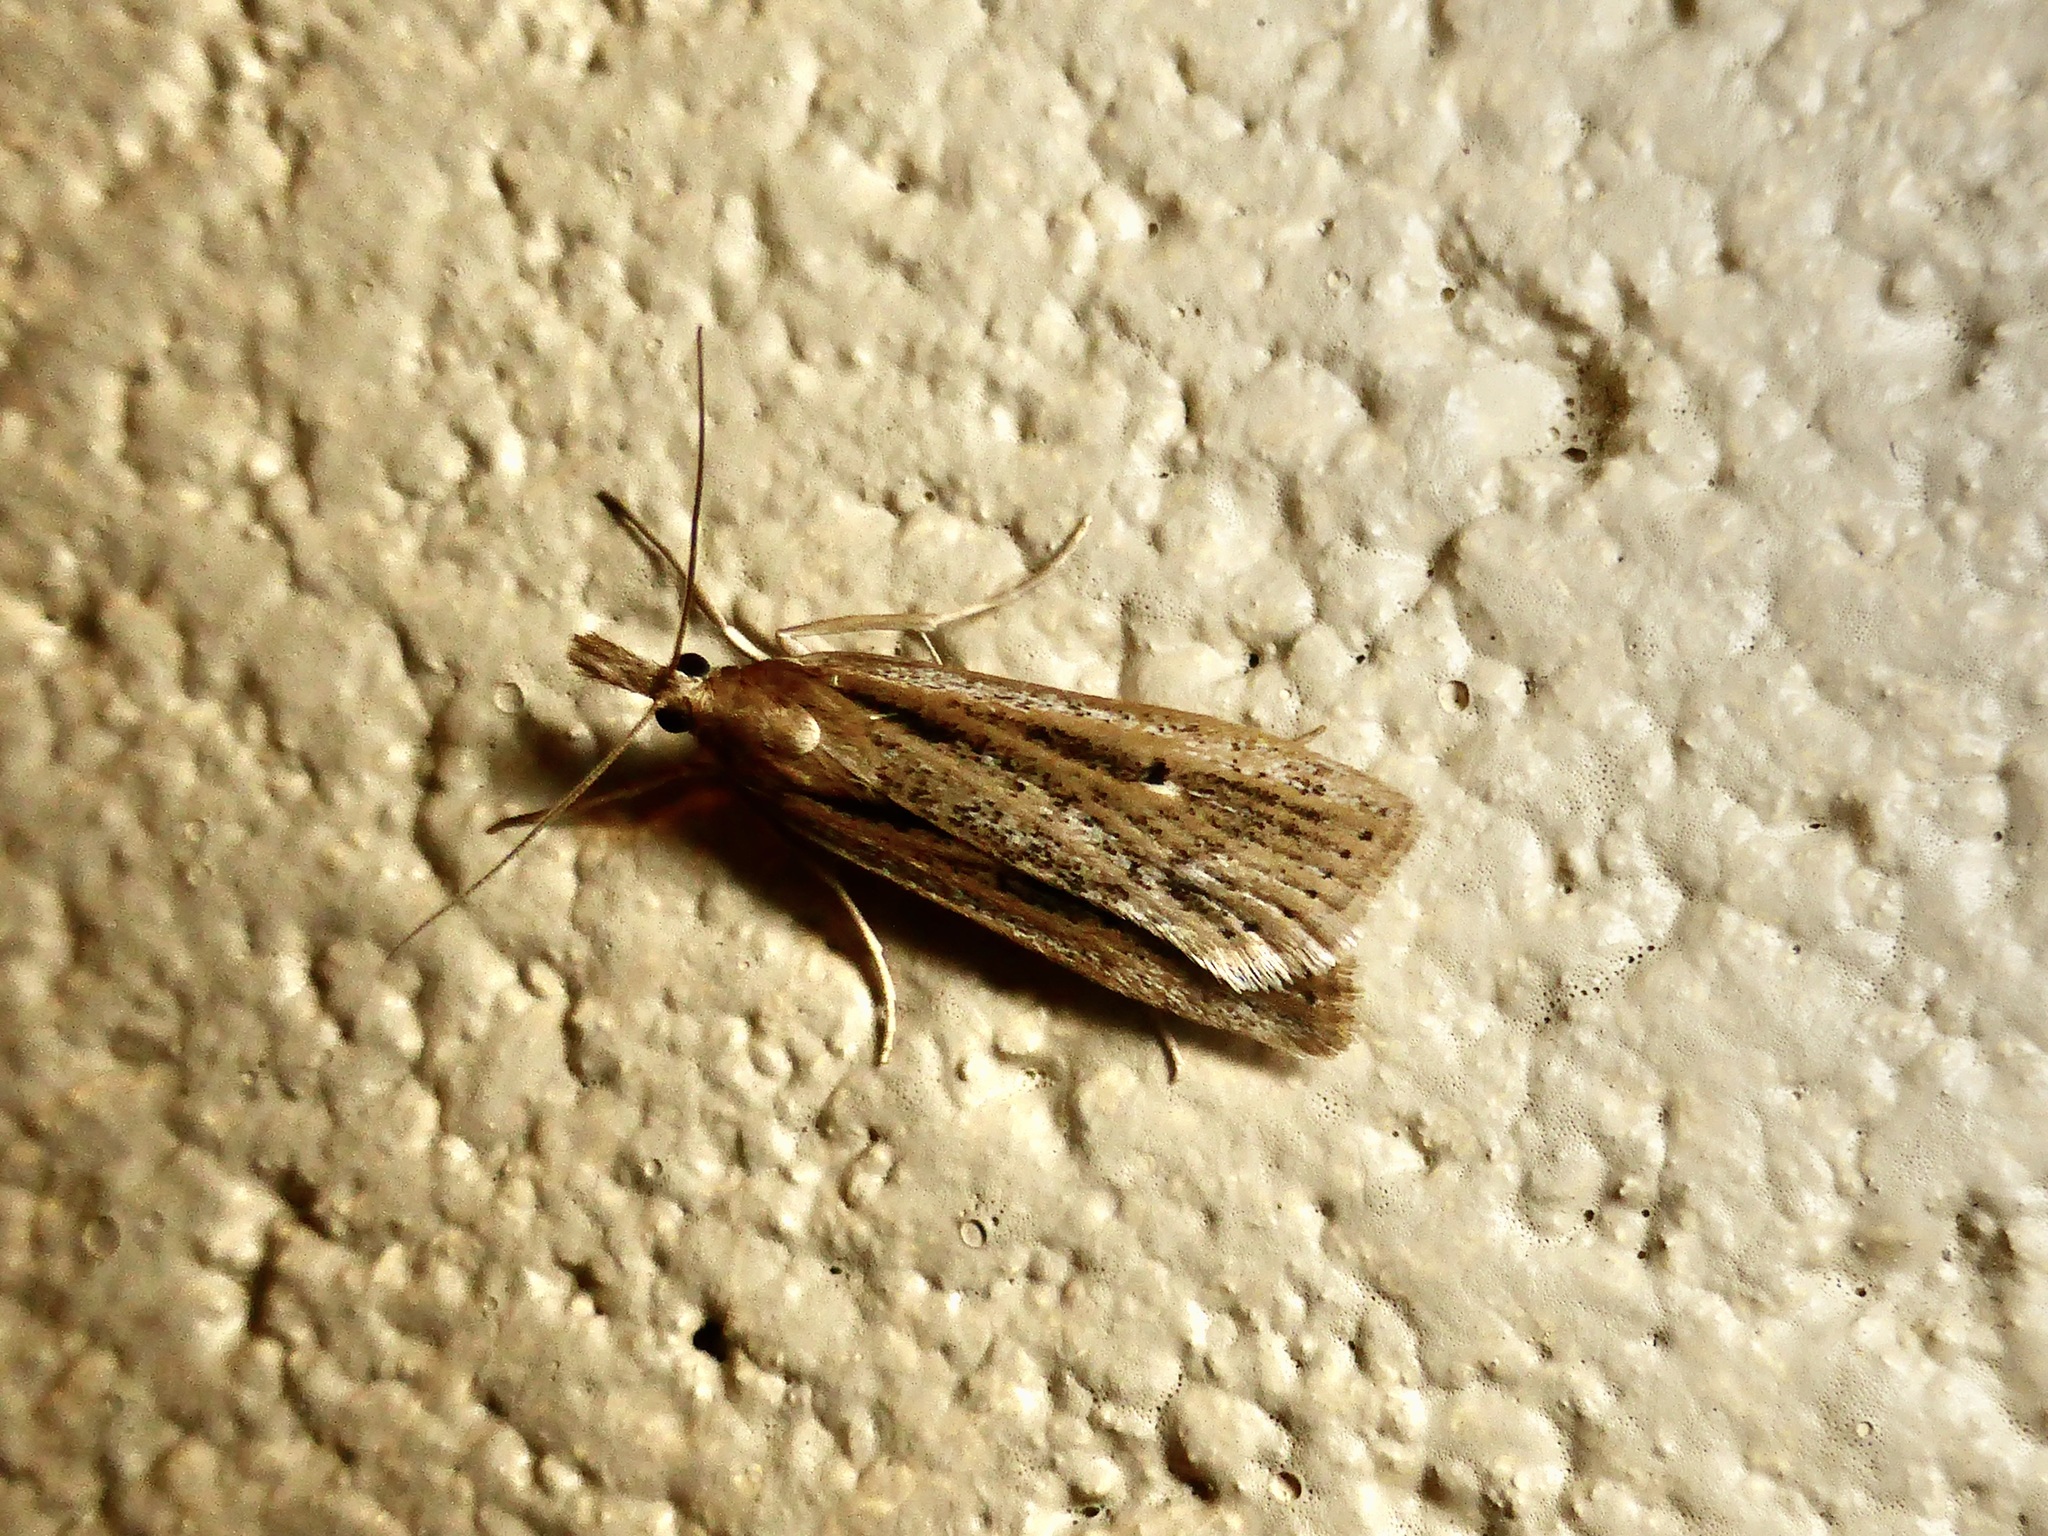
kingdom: Animalia
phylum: Arthropoda
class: Insecta
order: Lepidoptera
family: Crambidae
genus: Eudonia
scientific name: Eudonia sabulosella
